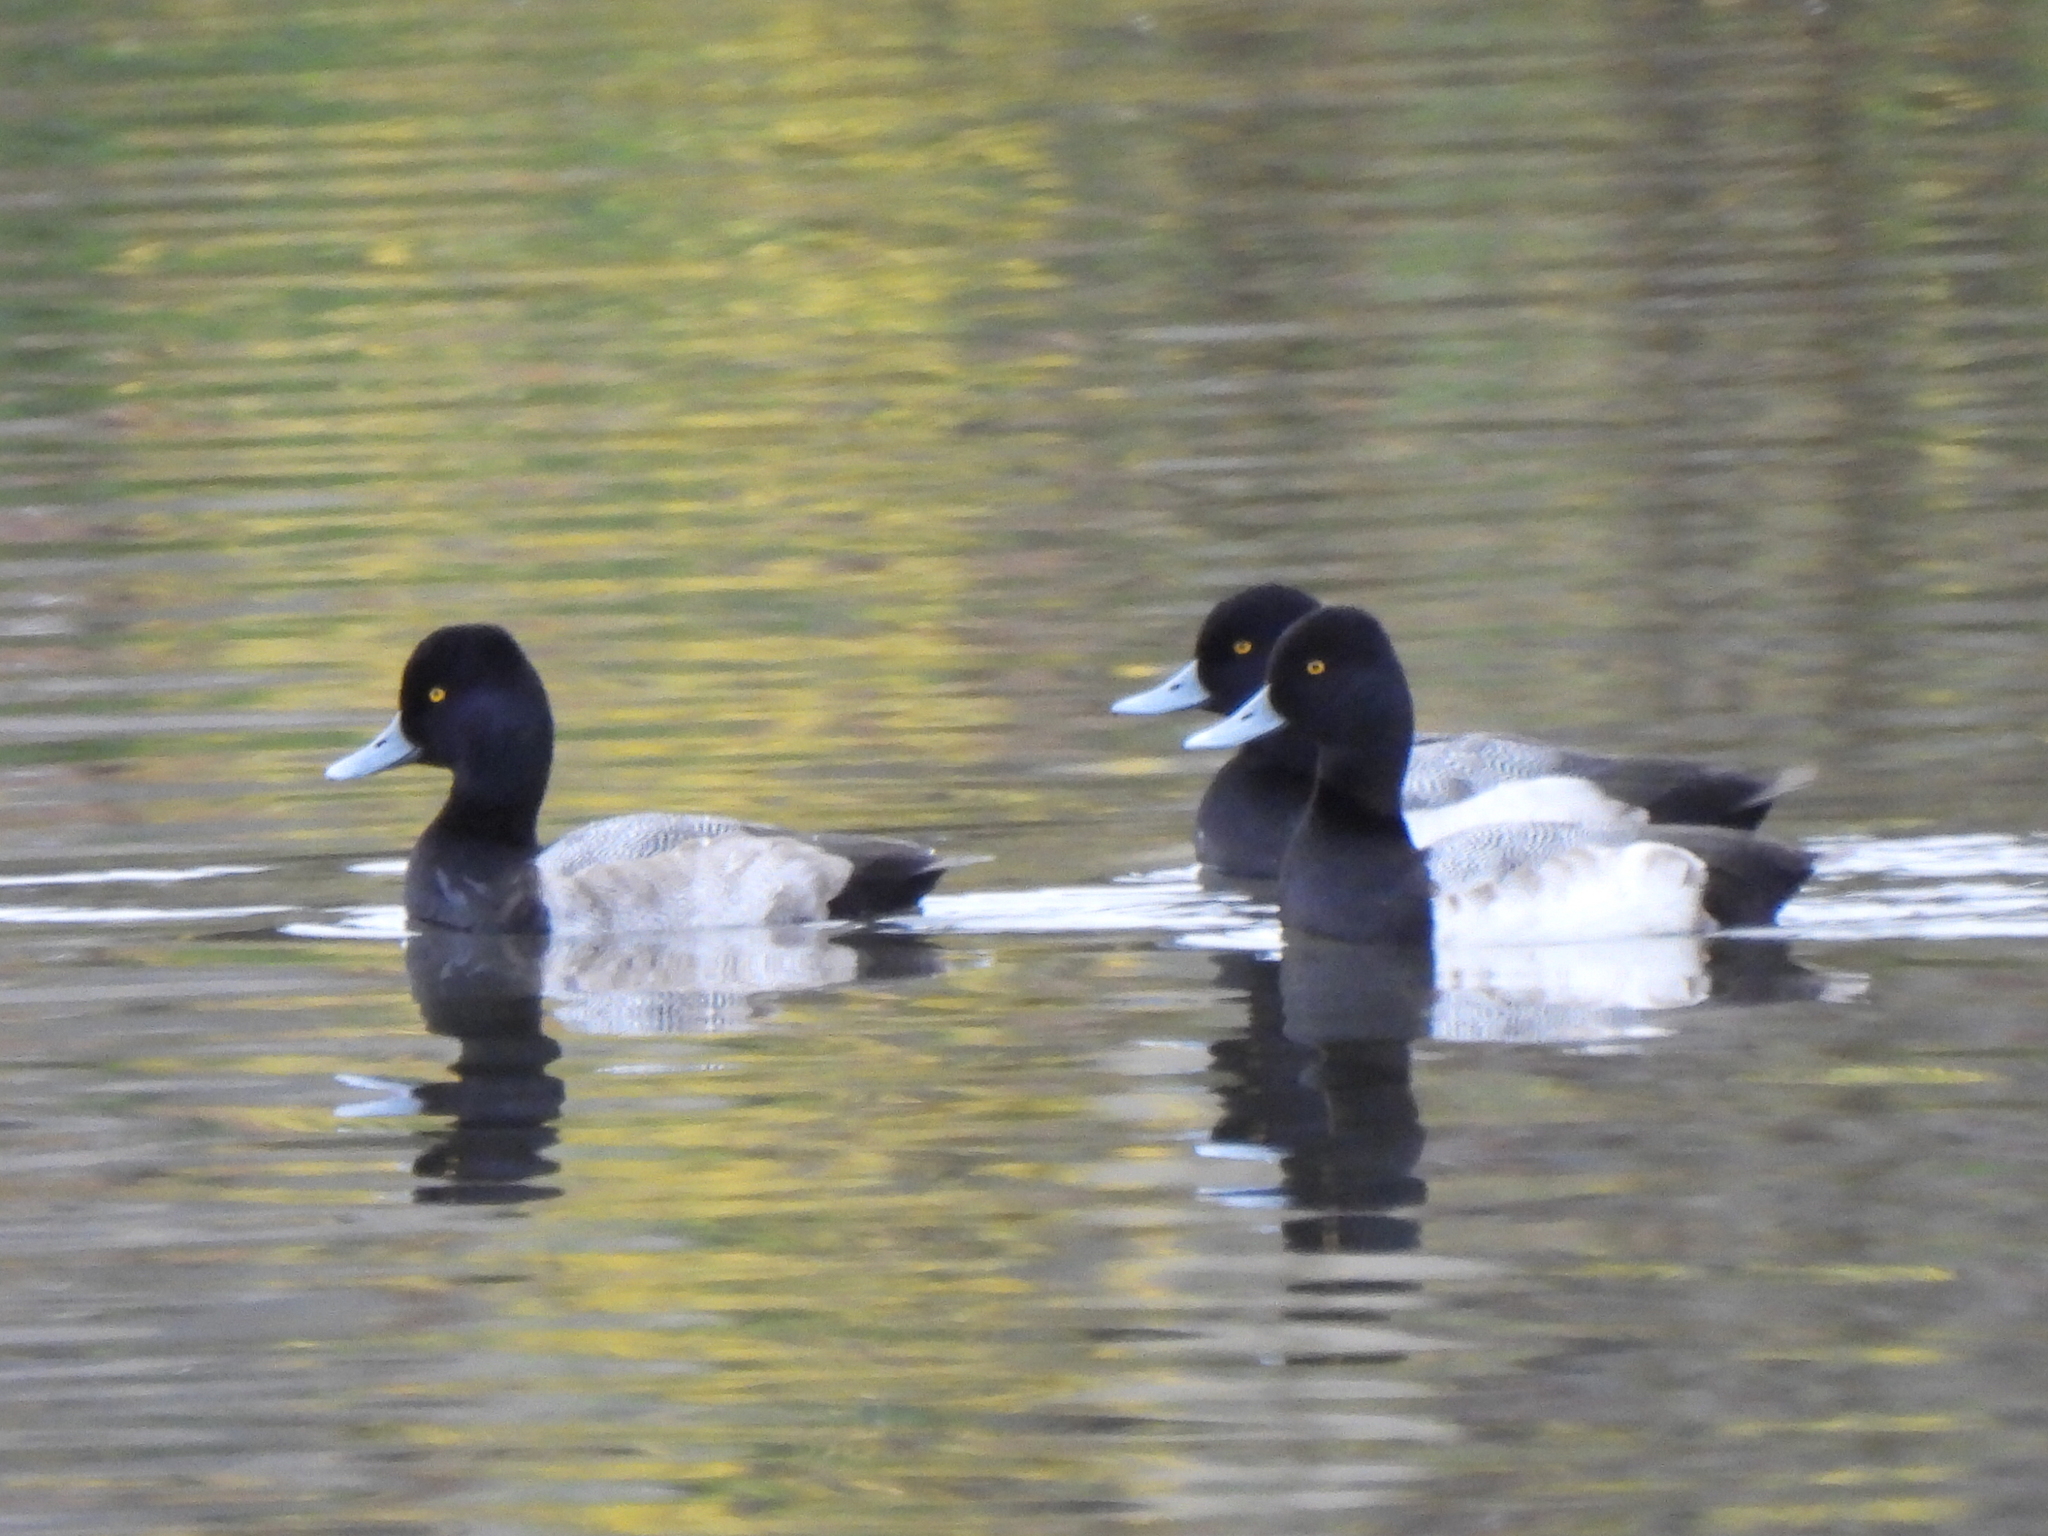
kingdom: Animalia
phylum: Chordata
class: Aves
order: Anseriformes
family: Anatidae
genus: Aythya
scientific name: Aythya affinis
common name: Lesser scaup
